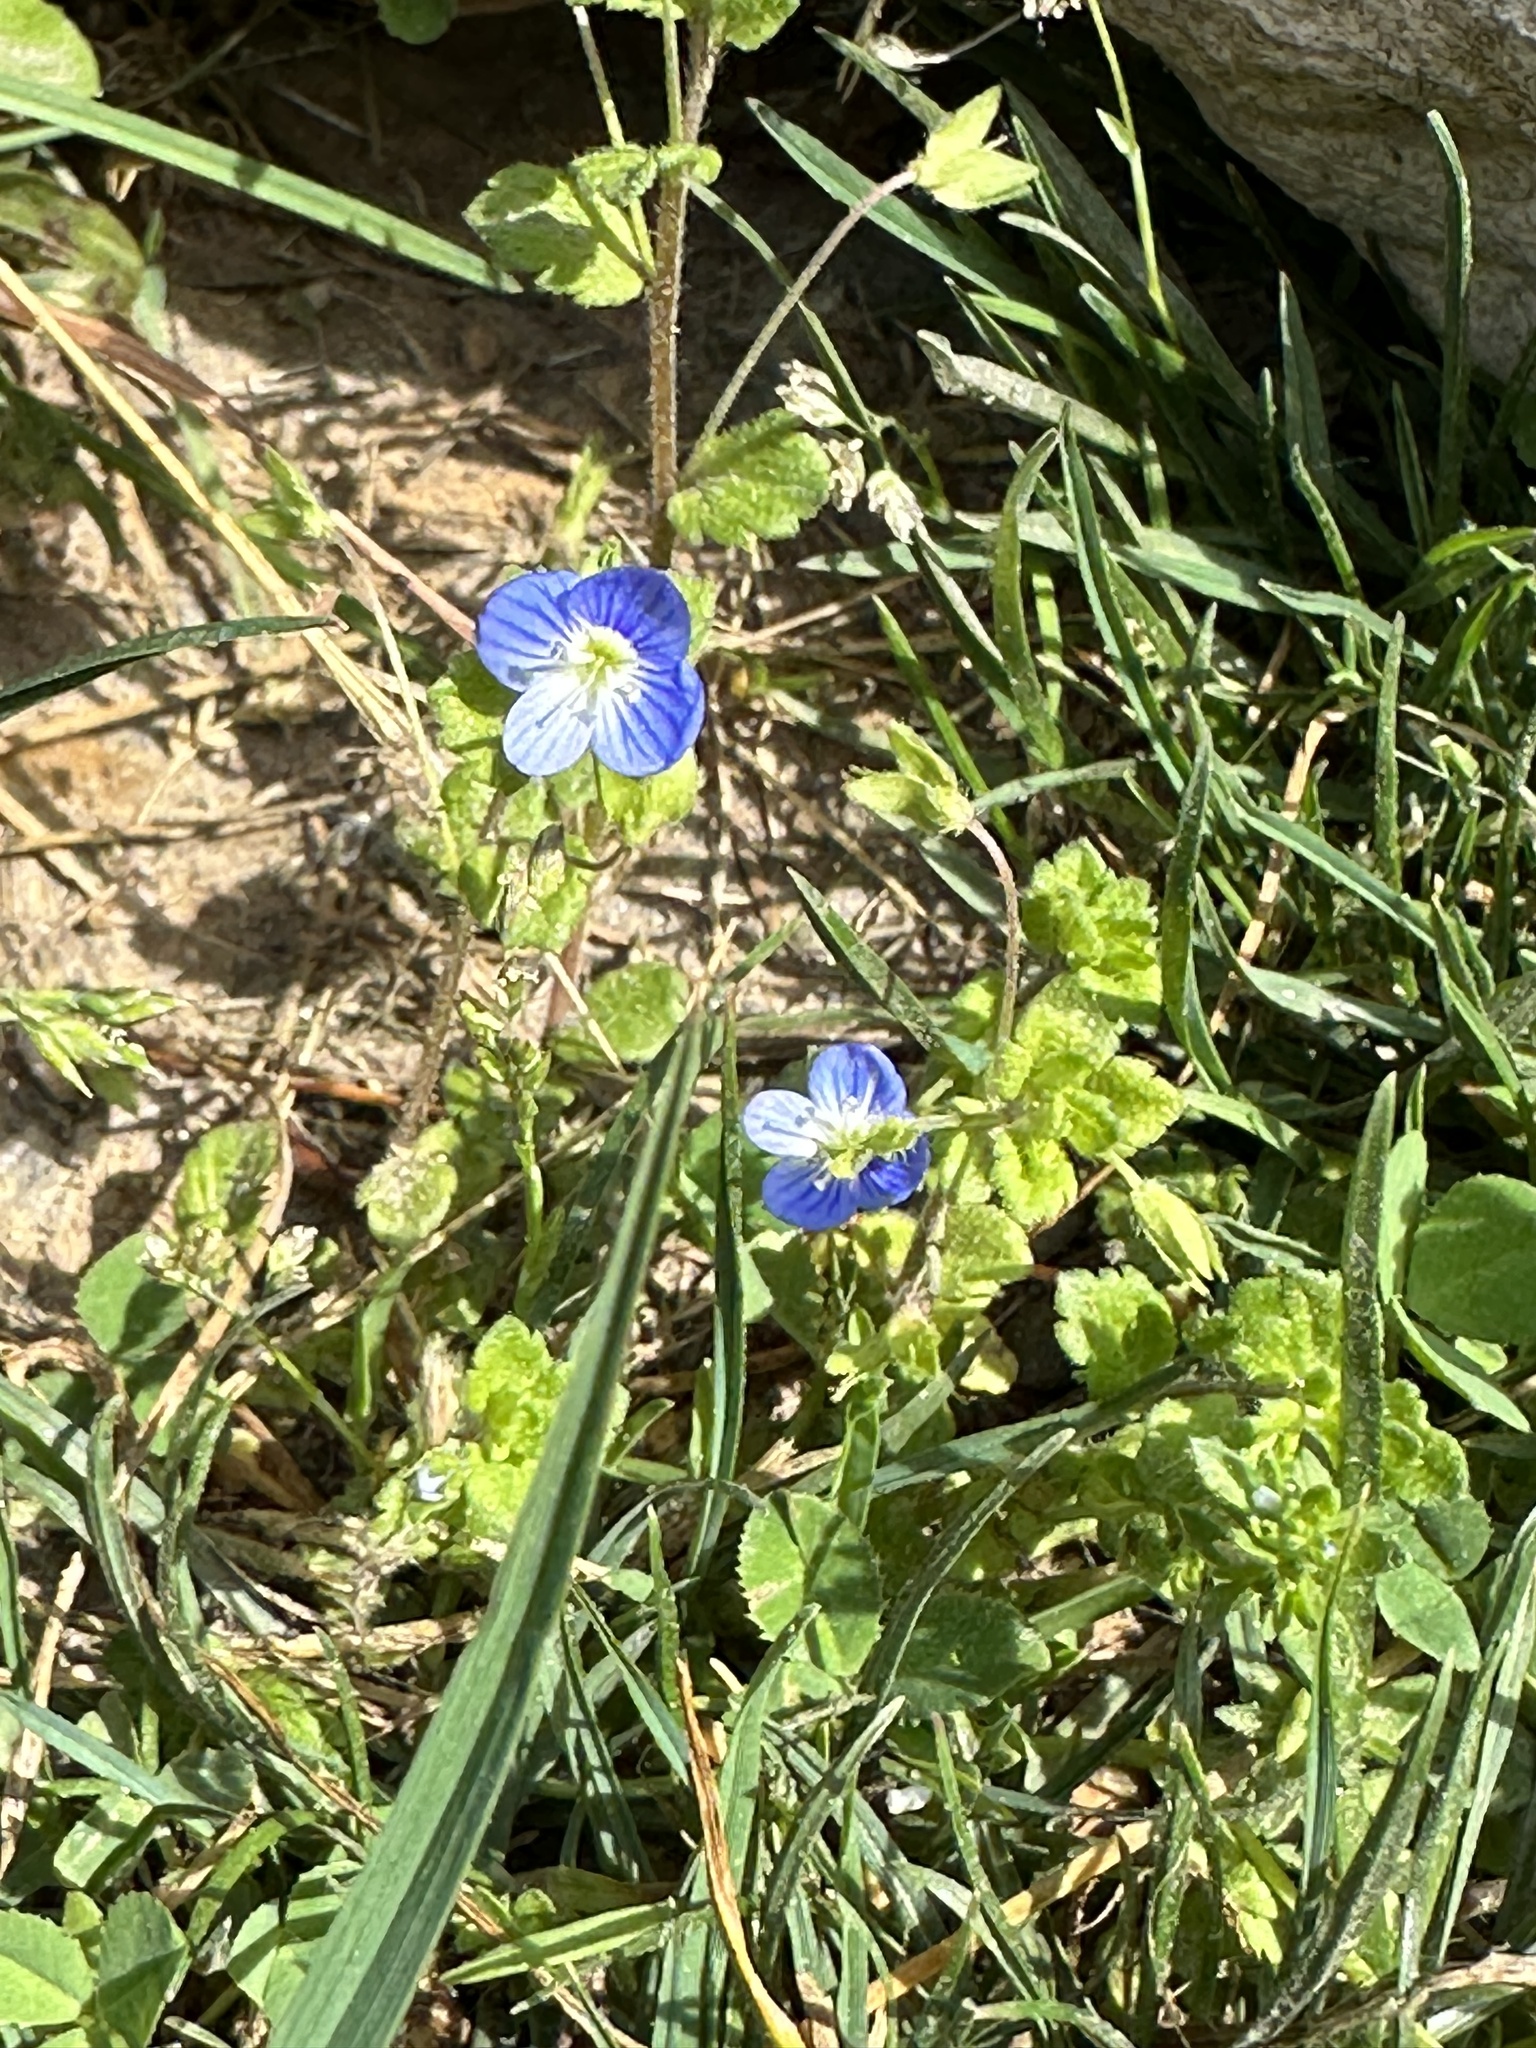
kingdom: Plantae
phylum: Tracheophyta
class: Magnoliopsida
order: Lamiales
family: Plantaginaceae
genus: Veronica
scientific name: Veronica persica
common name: Common field-speedwell
